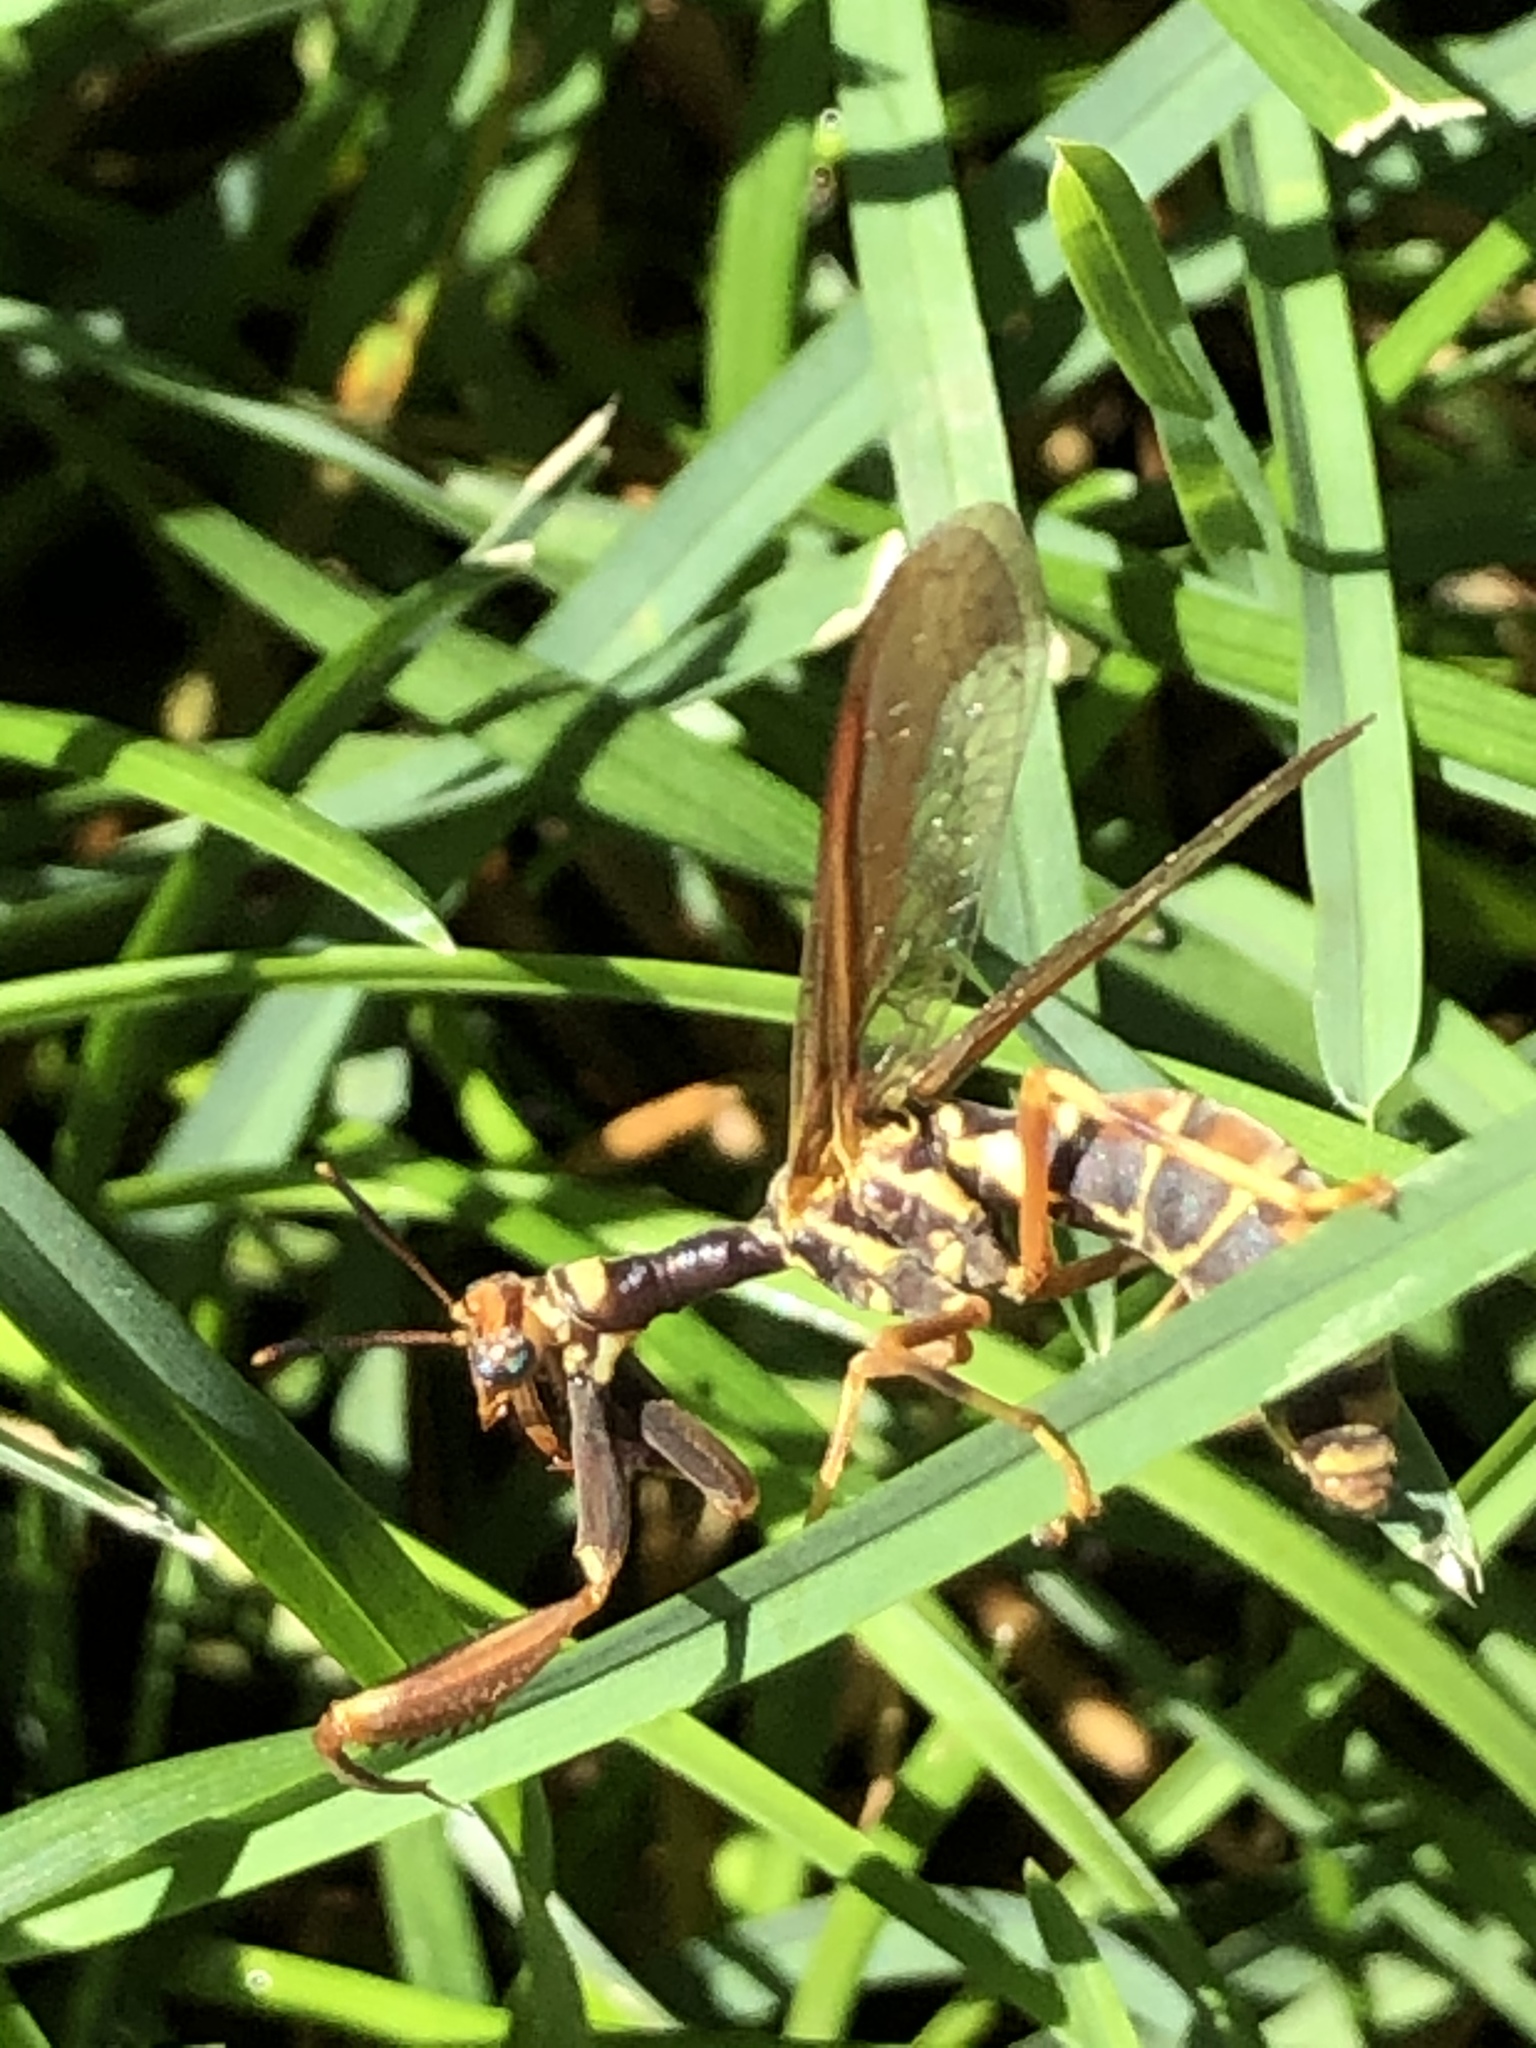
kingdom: Animalia
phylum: Arthropoda
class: Insecta
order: Neuroptera
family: Mantispidae
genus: Climaciella
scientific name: Climaciella brunnea
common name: Brown wasp mantidfly
